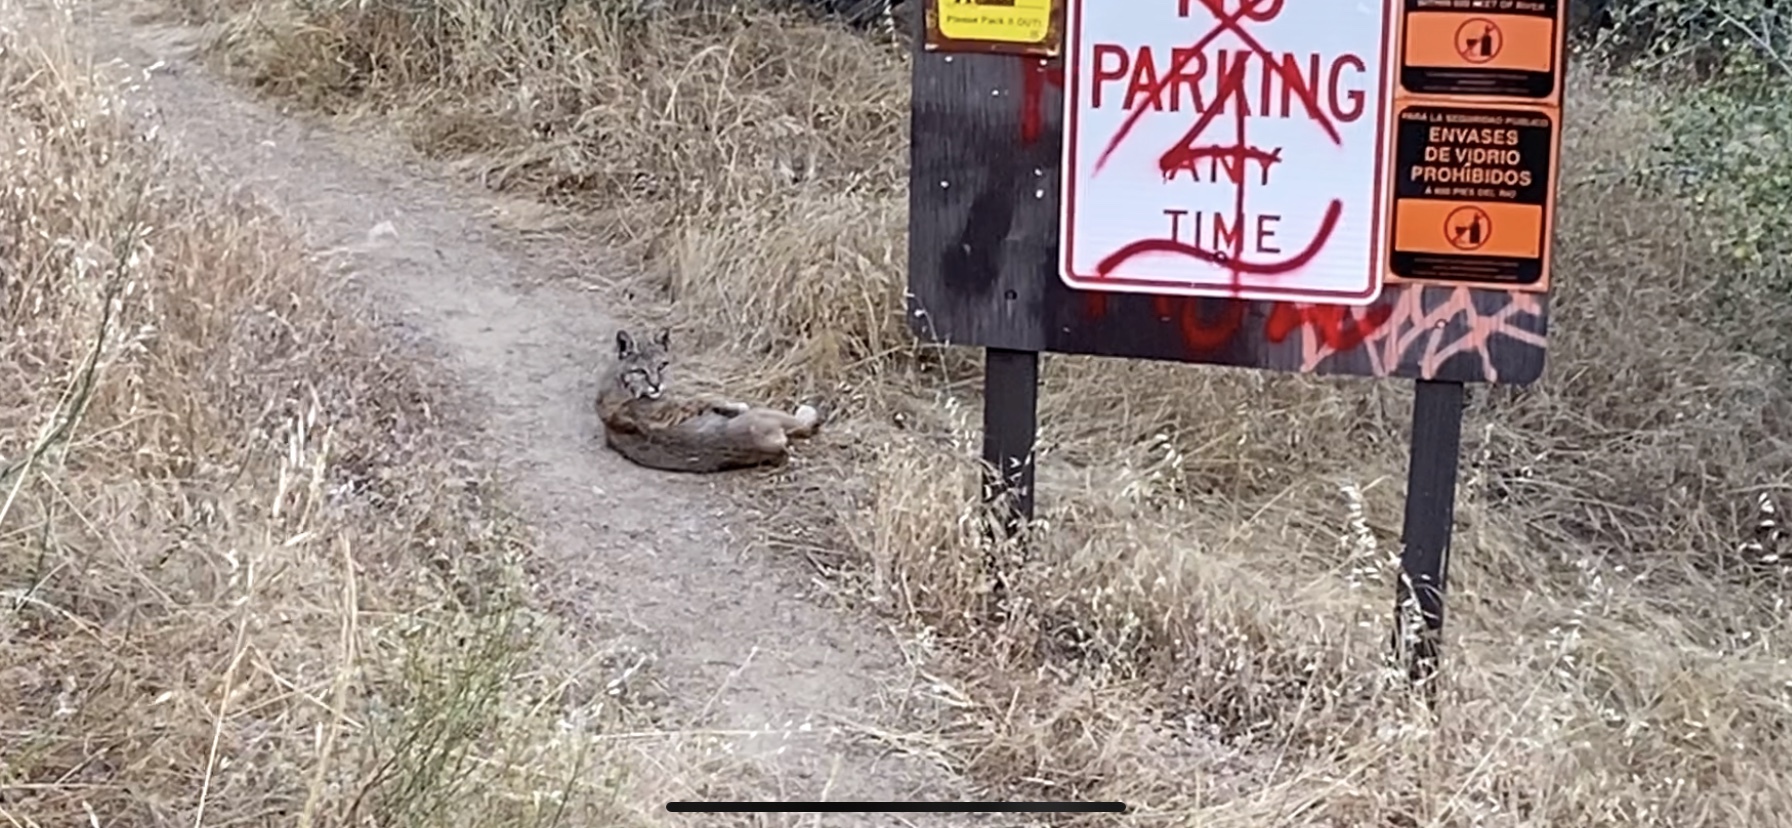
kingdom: Animalia
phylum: Chordata
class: Mammalia
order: Carnivora
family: Felidae
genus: Lynx
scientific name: Lynx rufus
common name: Bobcat
